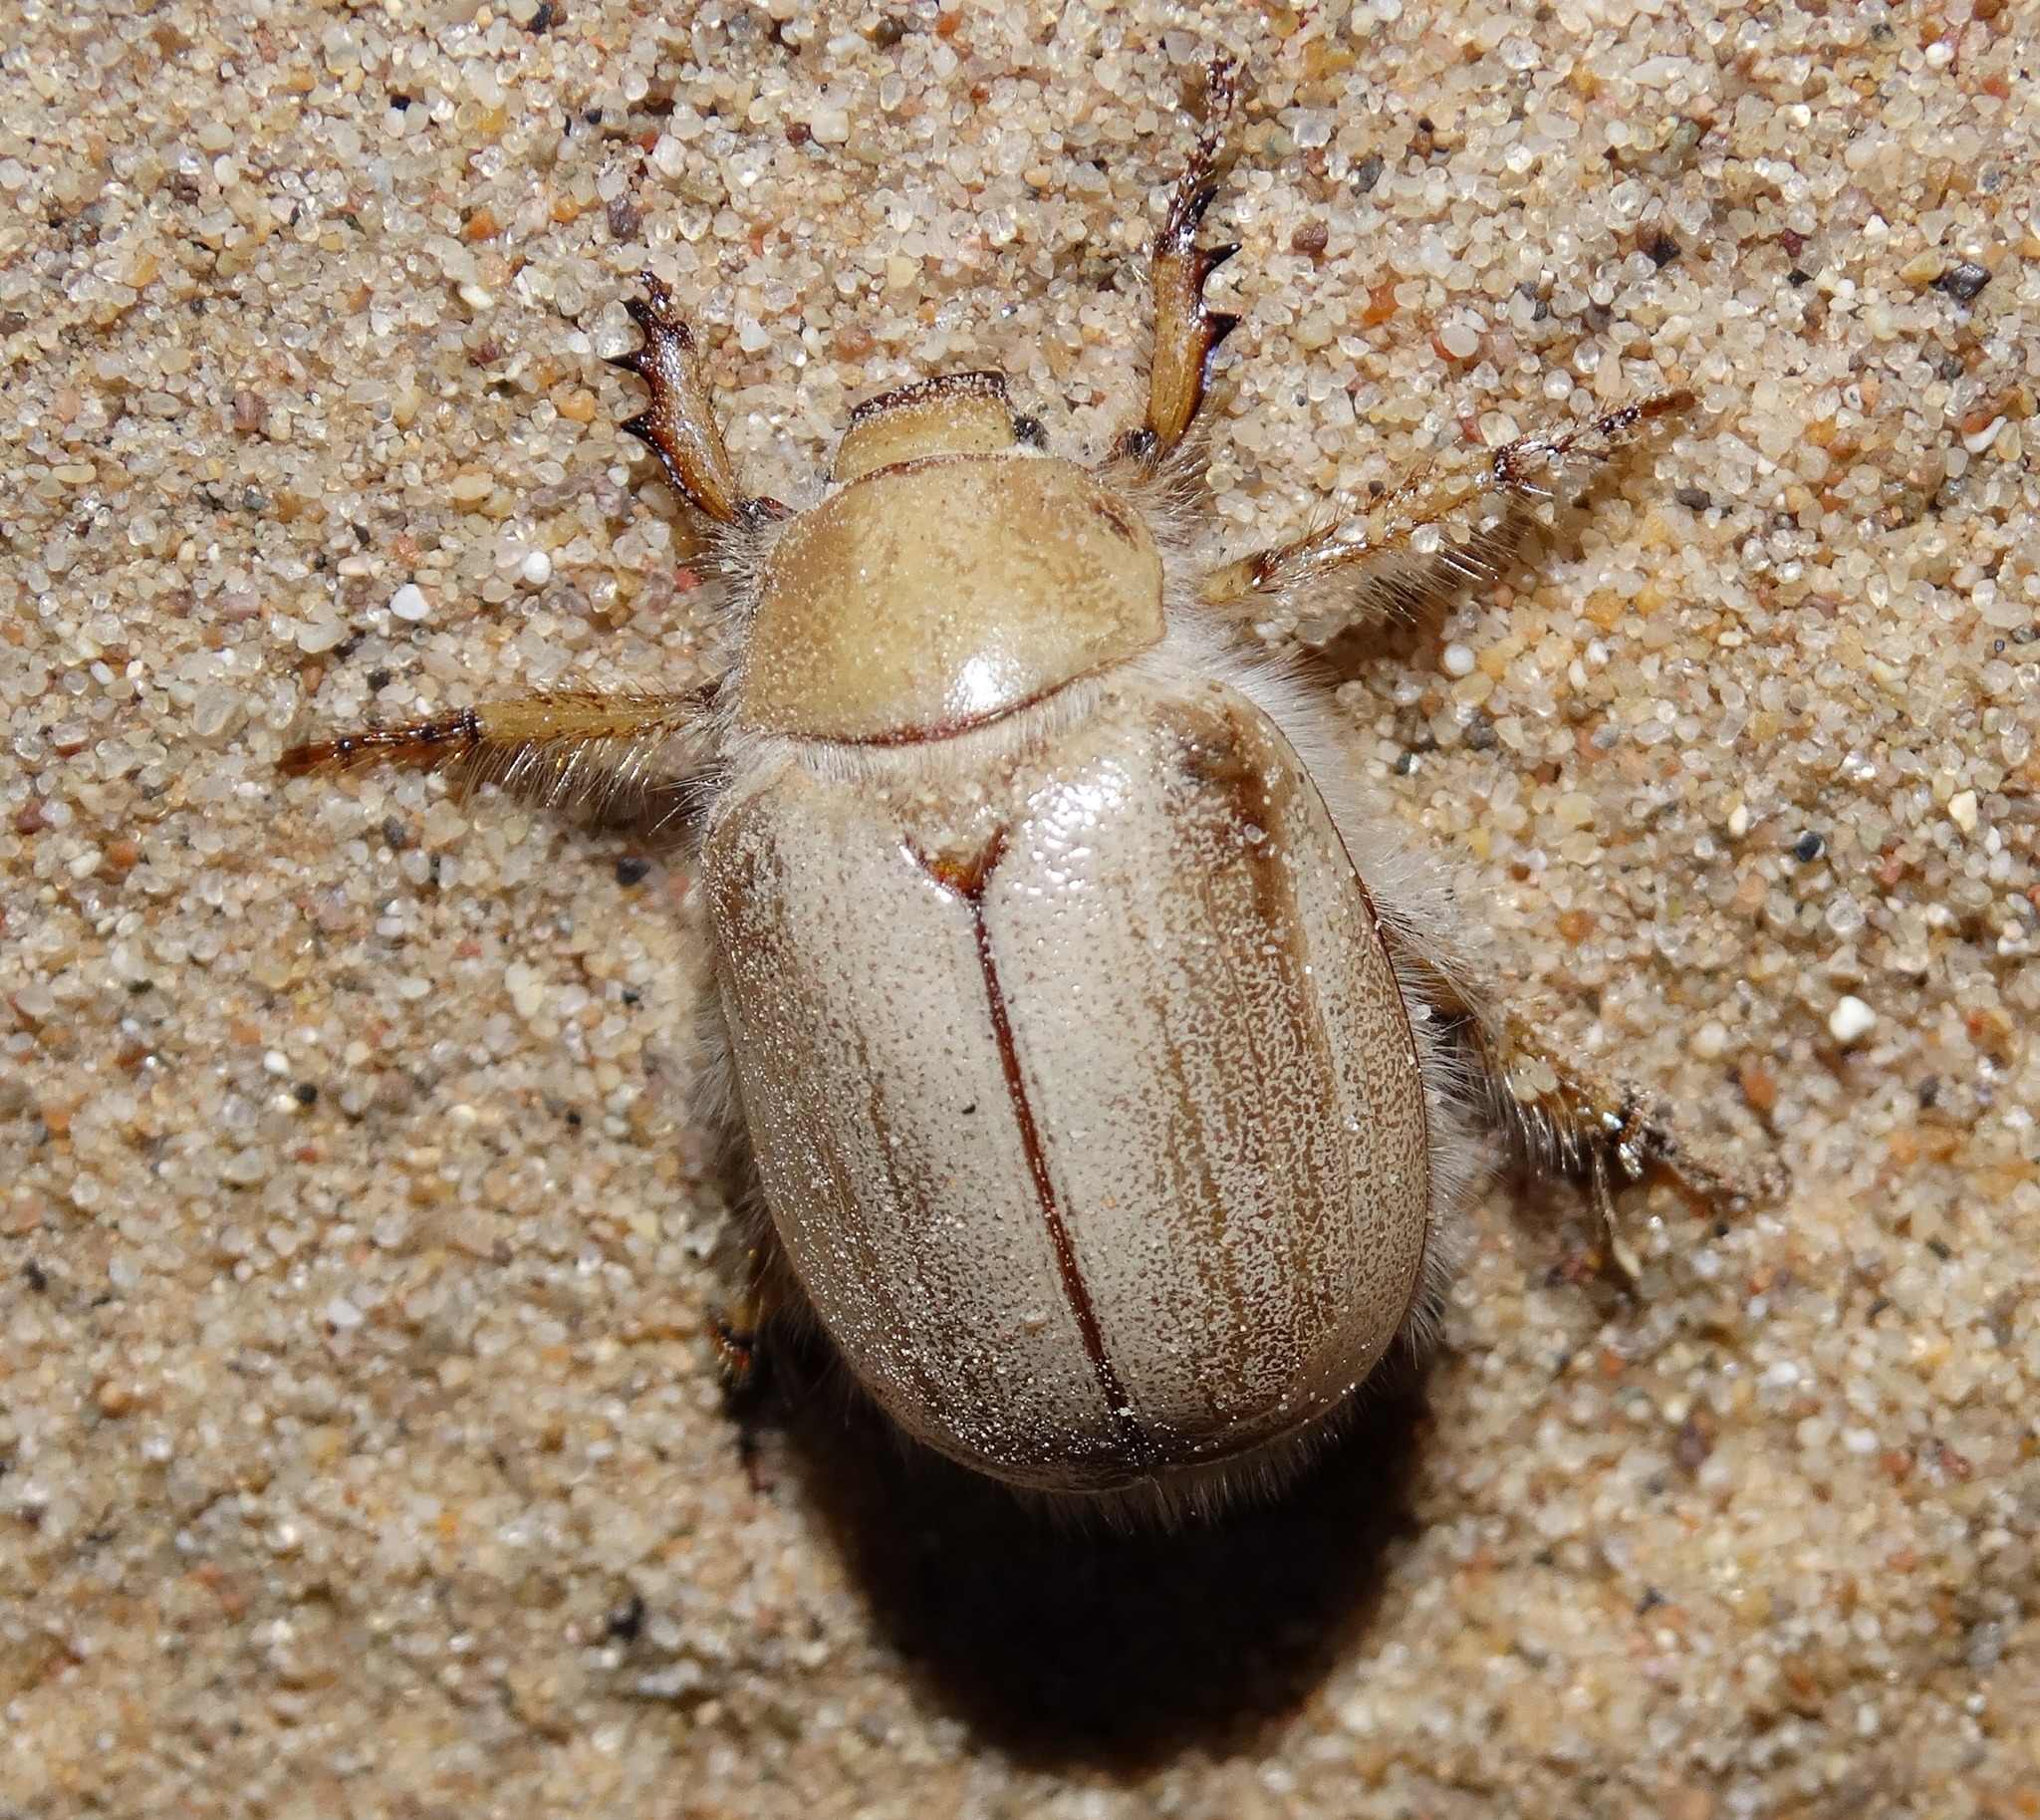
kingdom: Animalia
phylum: Arthropoda
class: Insecta
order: Coleoptera
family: Scarabaeidae
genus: Pseudocotalpa
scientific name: Pseudocotalpa andrewsi
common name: Andrews' dune scarab beetle
